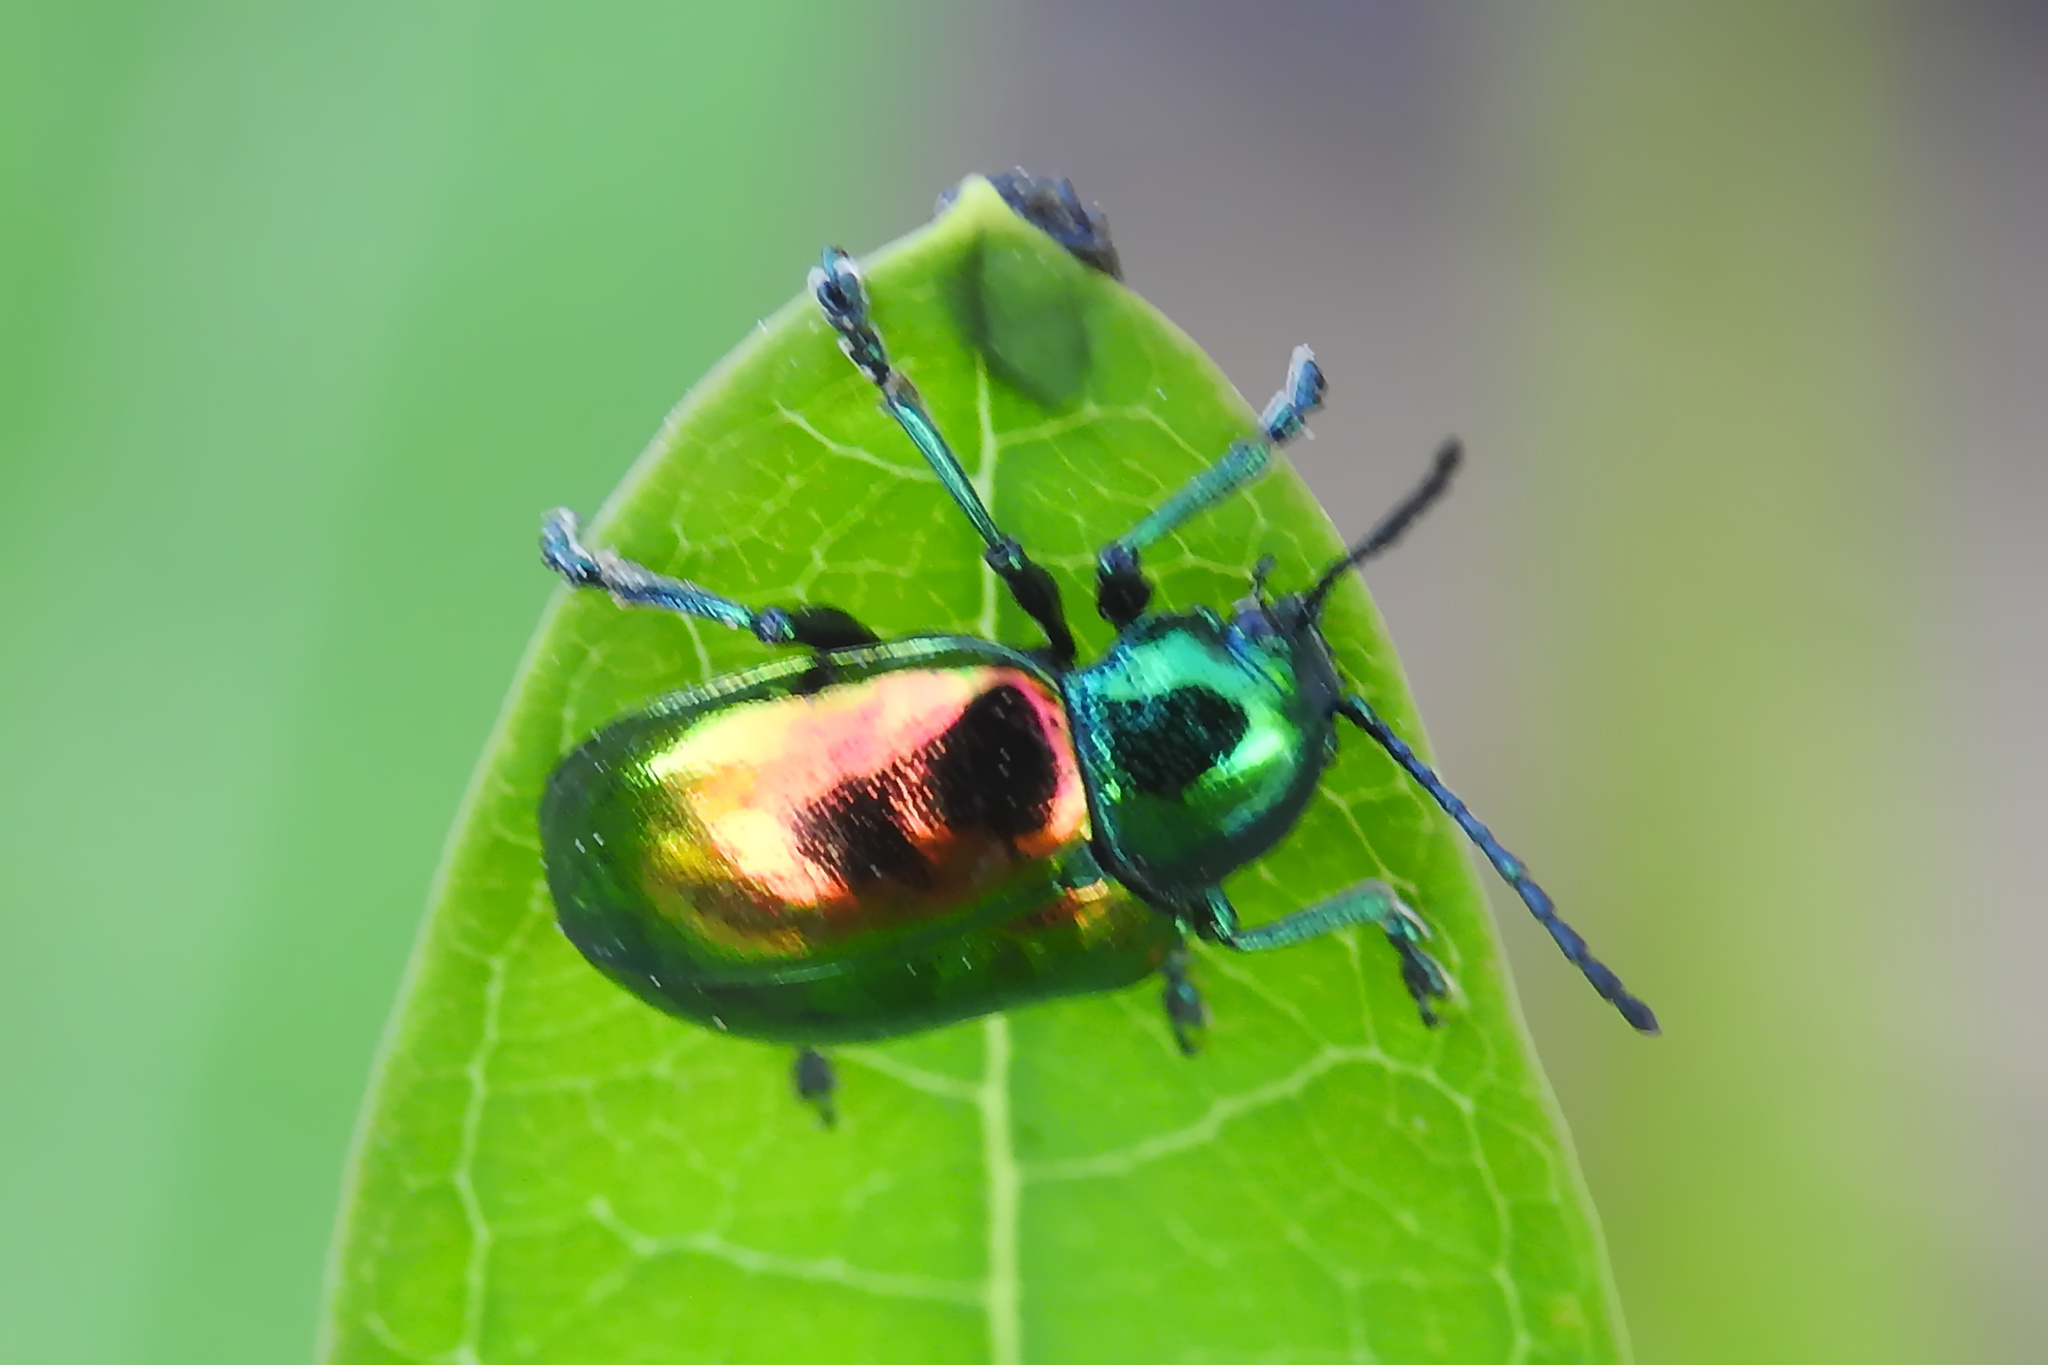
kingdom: Animalia
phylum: Arthropoda
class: Insecta
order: Coleoptera
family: Chrysomelidae
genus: Chrysochus
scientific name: Chrysochus auratus
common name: Dogbane leaf beetle
